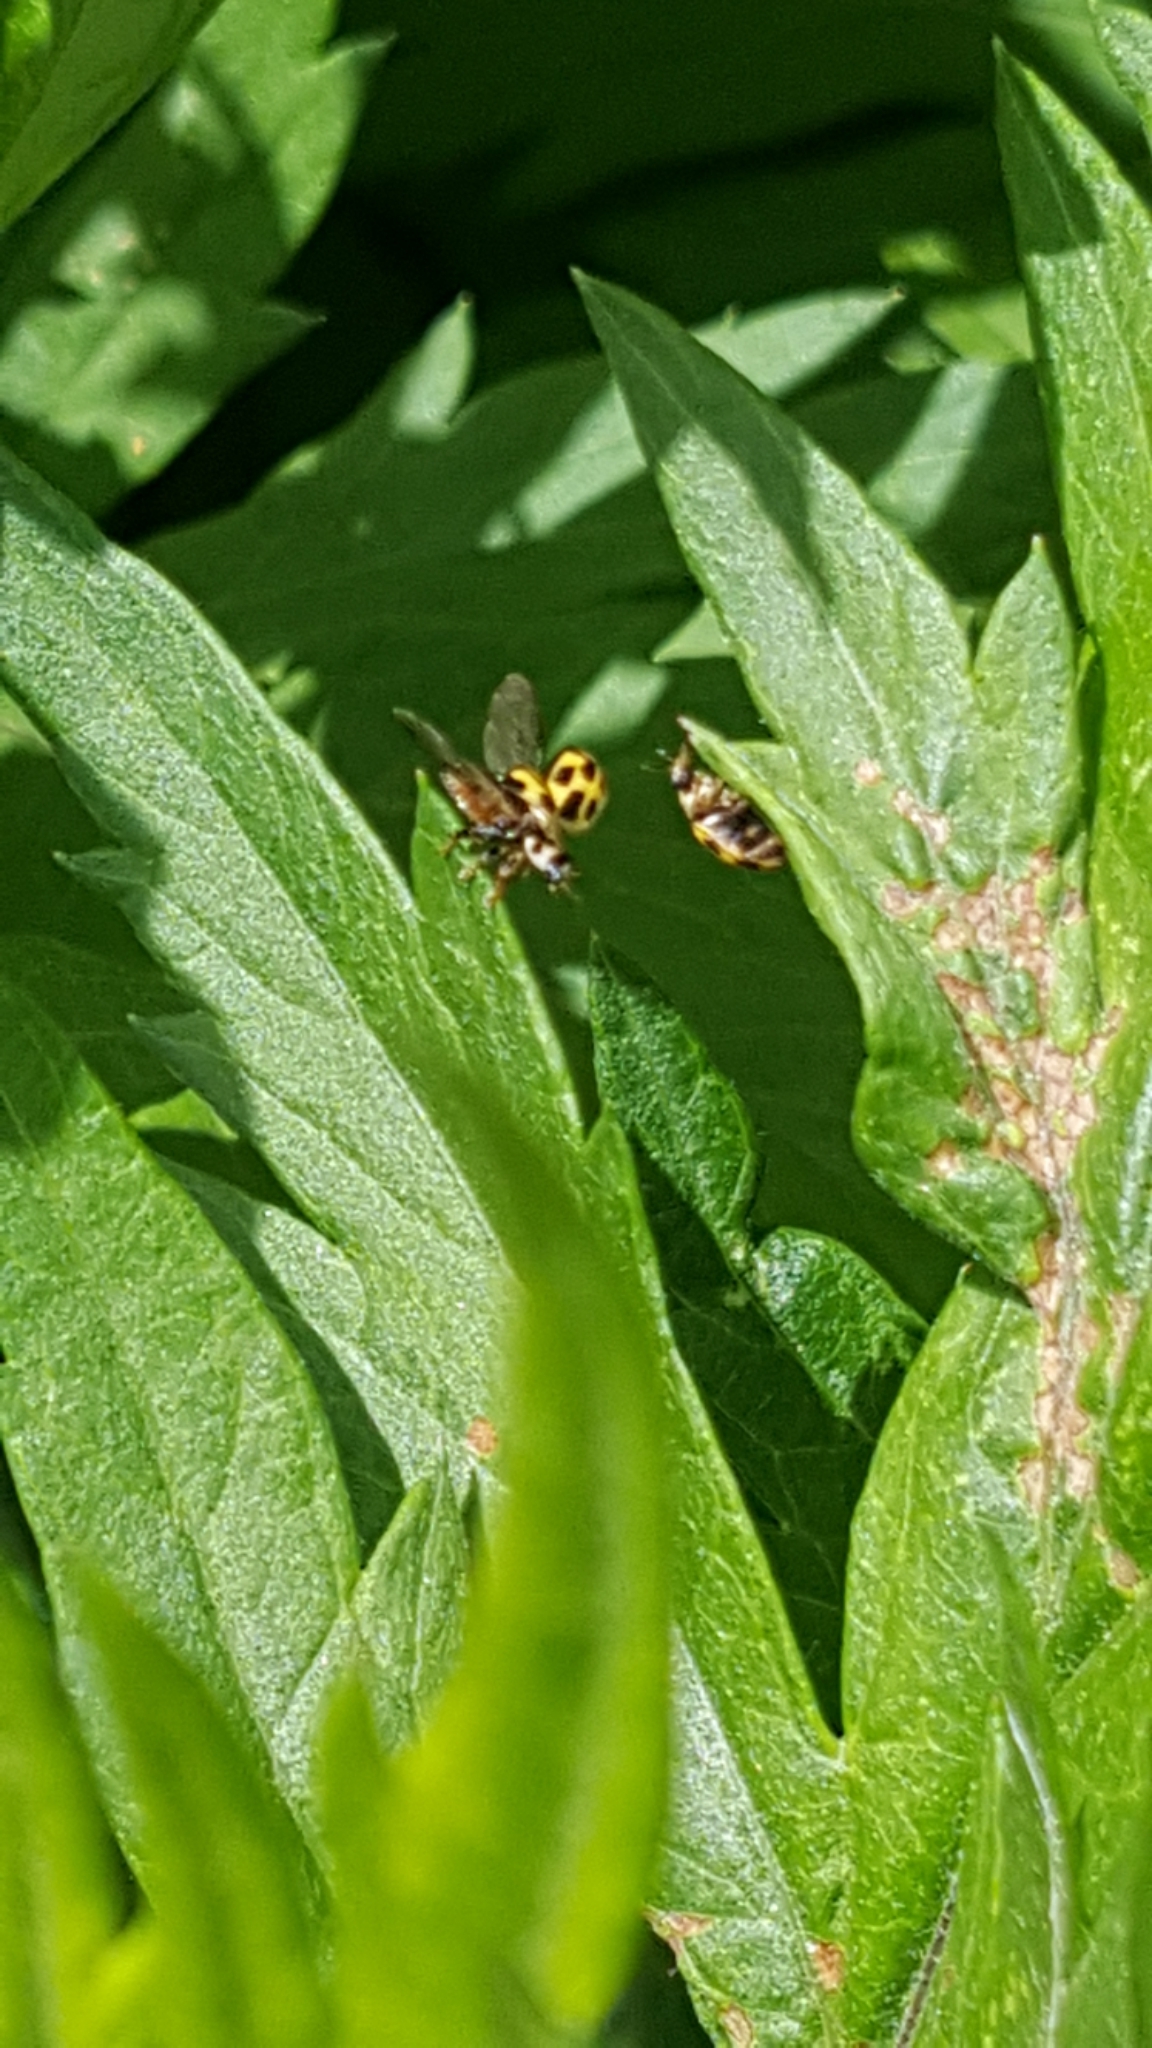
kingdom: Animalia
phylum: Arthropoda
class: Insecta
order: Coleoptera
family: Coccinellidae
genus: Propylaea
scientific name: Propylaea quatuordecimpunctata
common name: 14-spotted ladybird beetle
